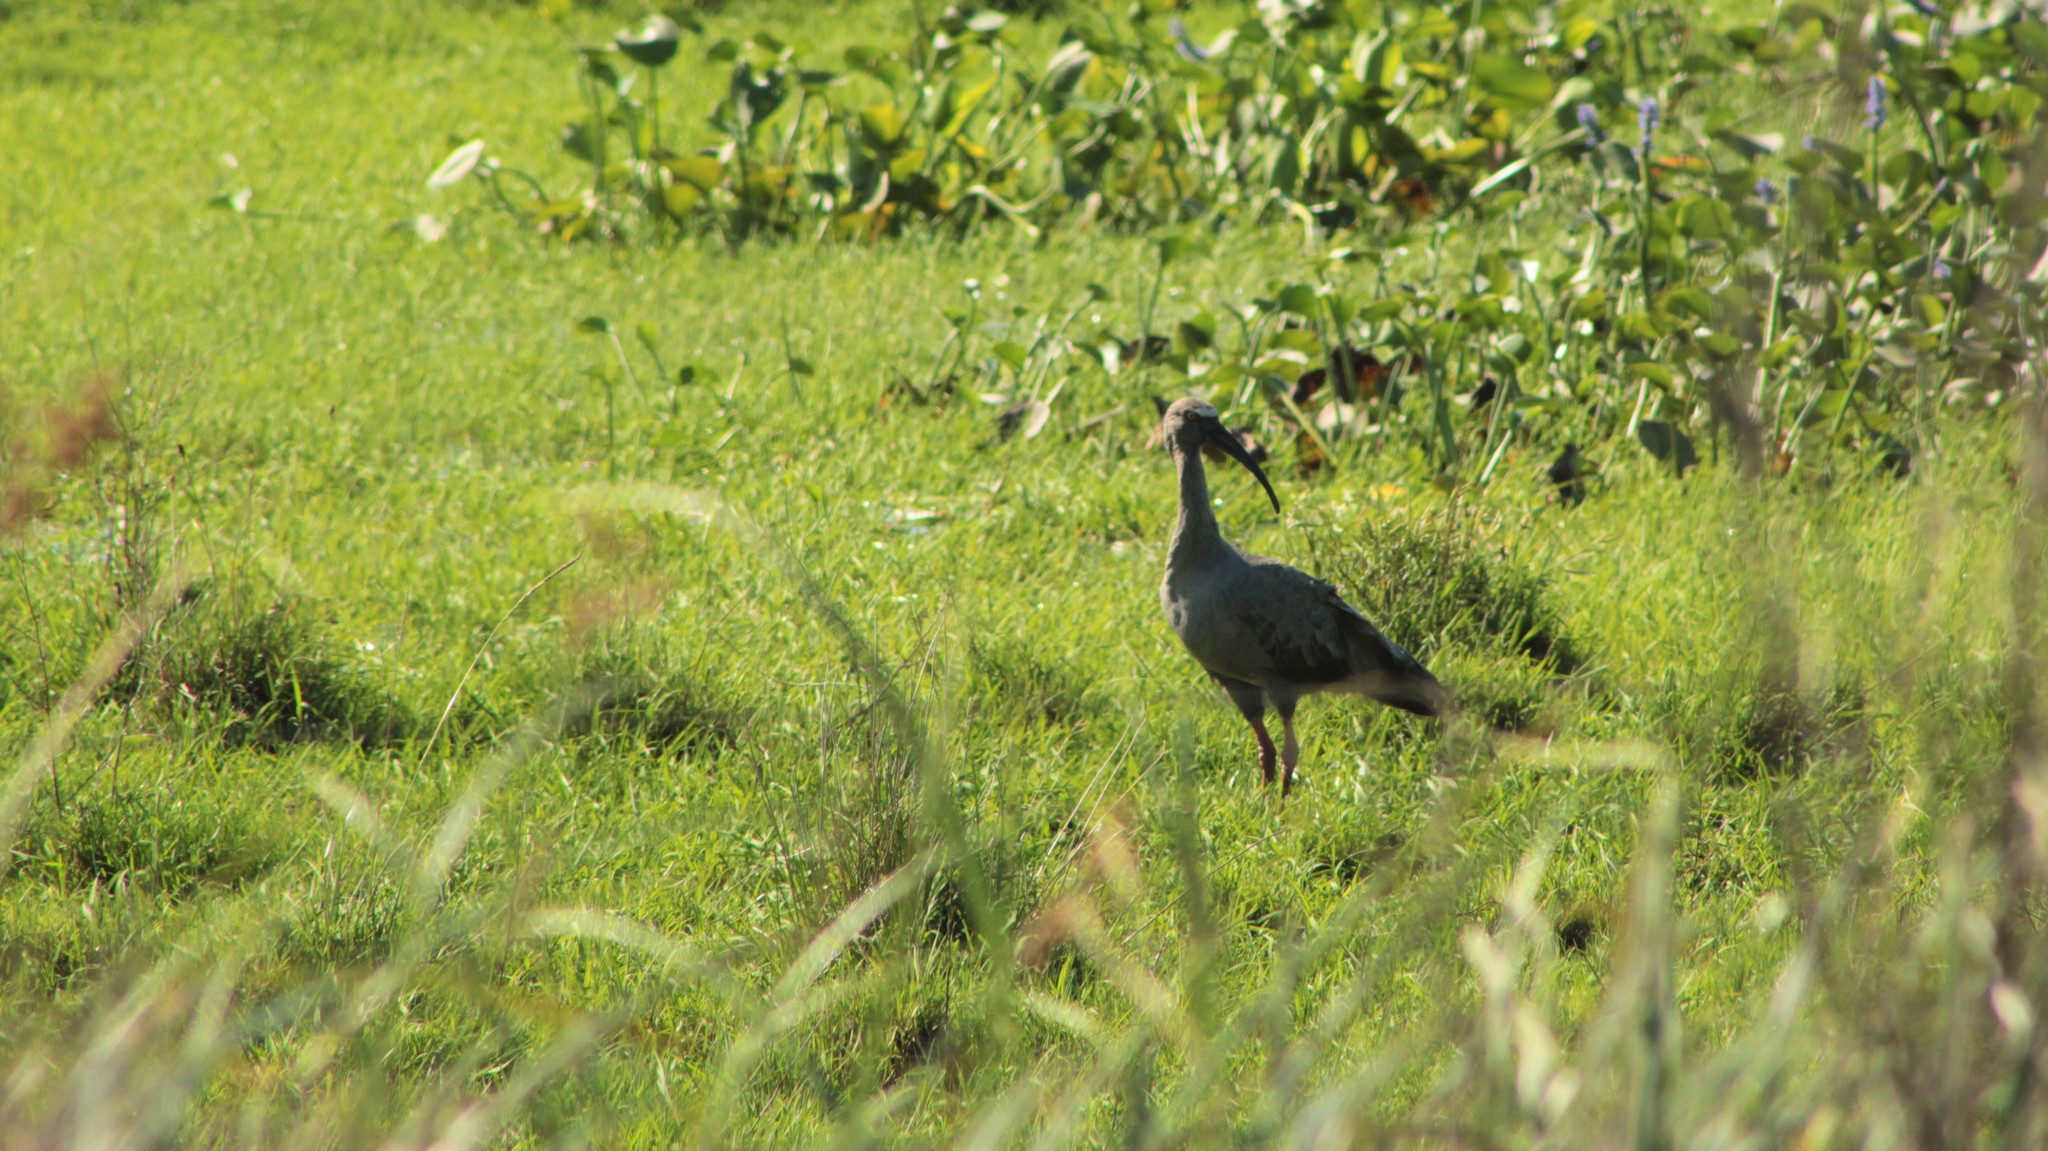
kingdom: Animalia
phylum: Chordata
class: Aves
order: Pelecaniformes
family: Threskiornithidae
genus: Theristicus
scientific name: Theristicus caerulescens
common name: Plumbeous ibis
